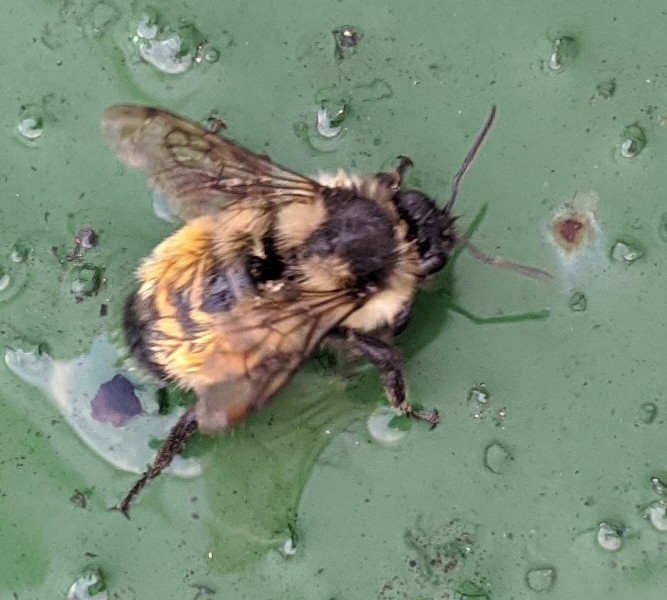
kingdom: Animalia
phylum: Arthropoda
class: Insecta
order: Hymenoptera
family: Apidae
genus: Bombus
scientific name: Bombus ternarius
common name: Tri-colored bumble bee
